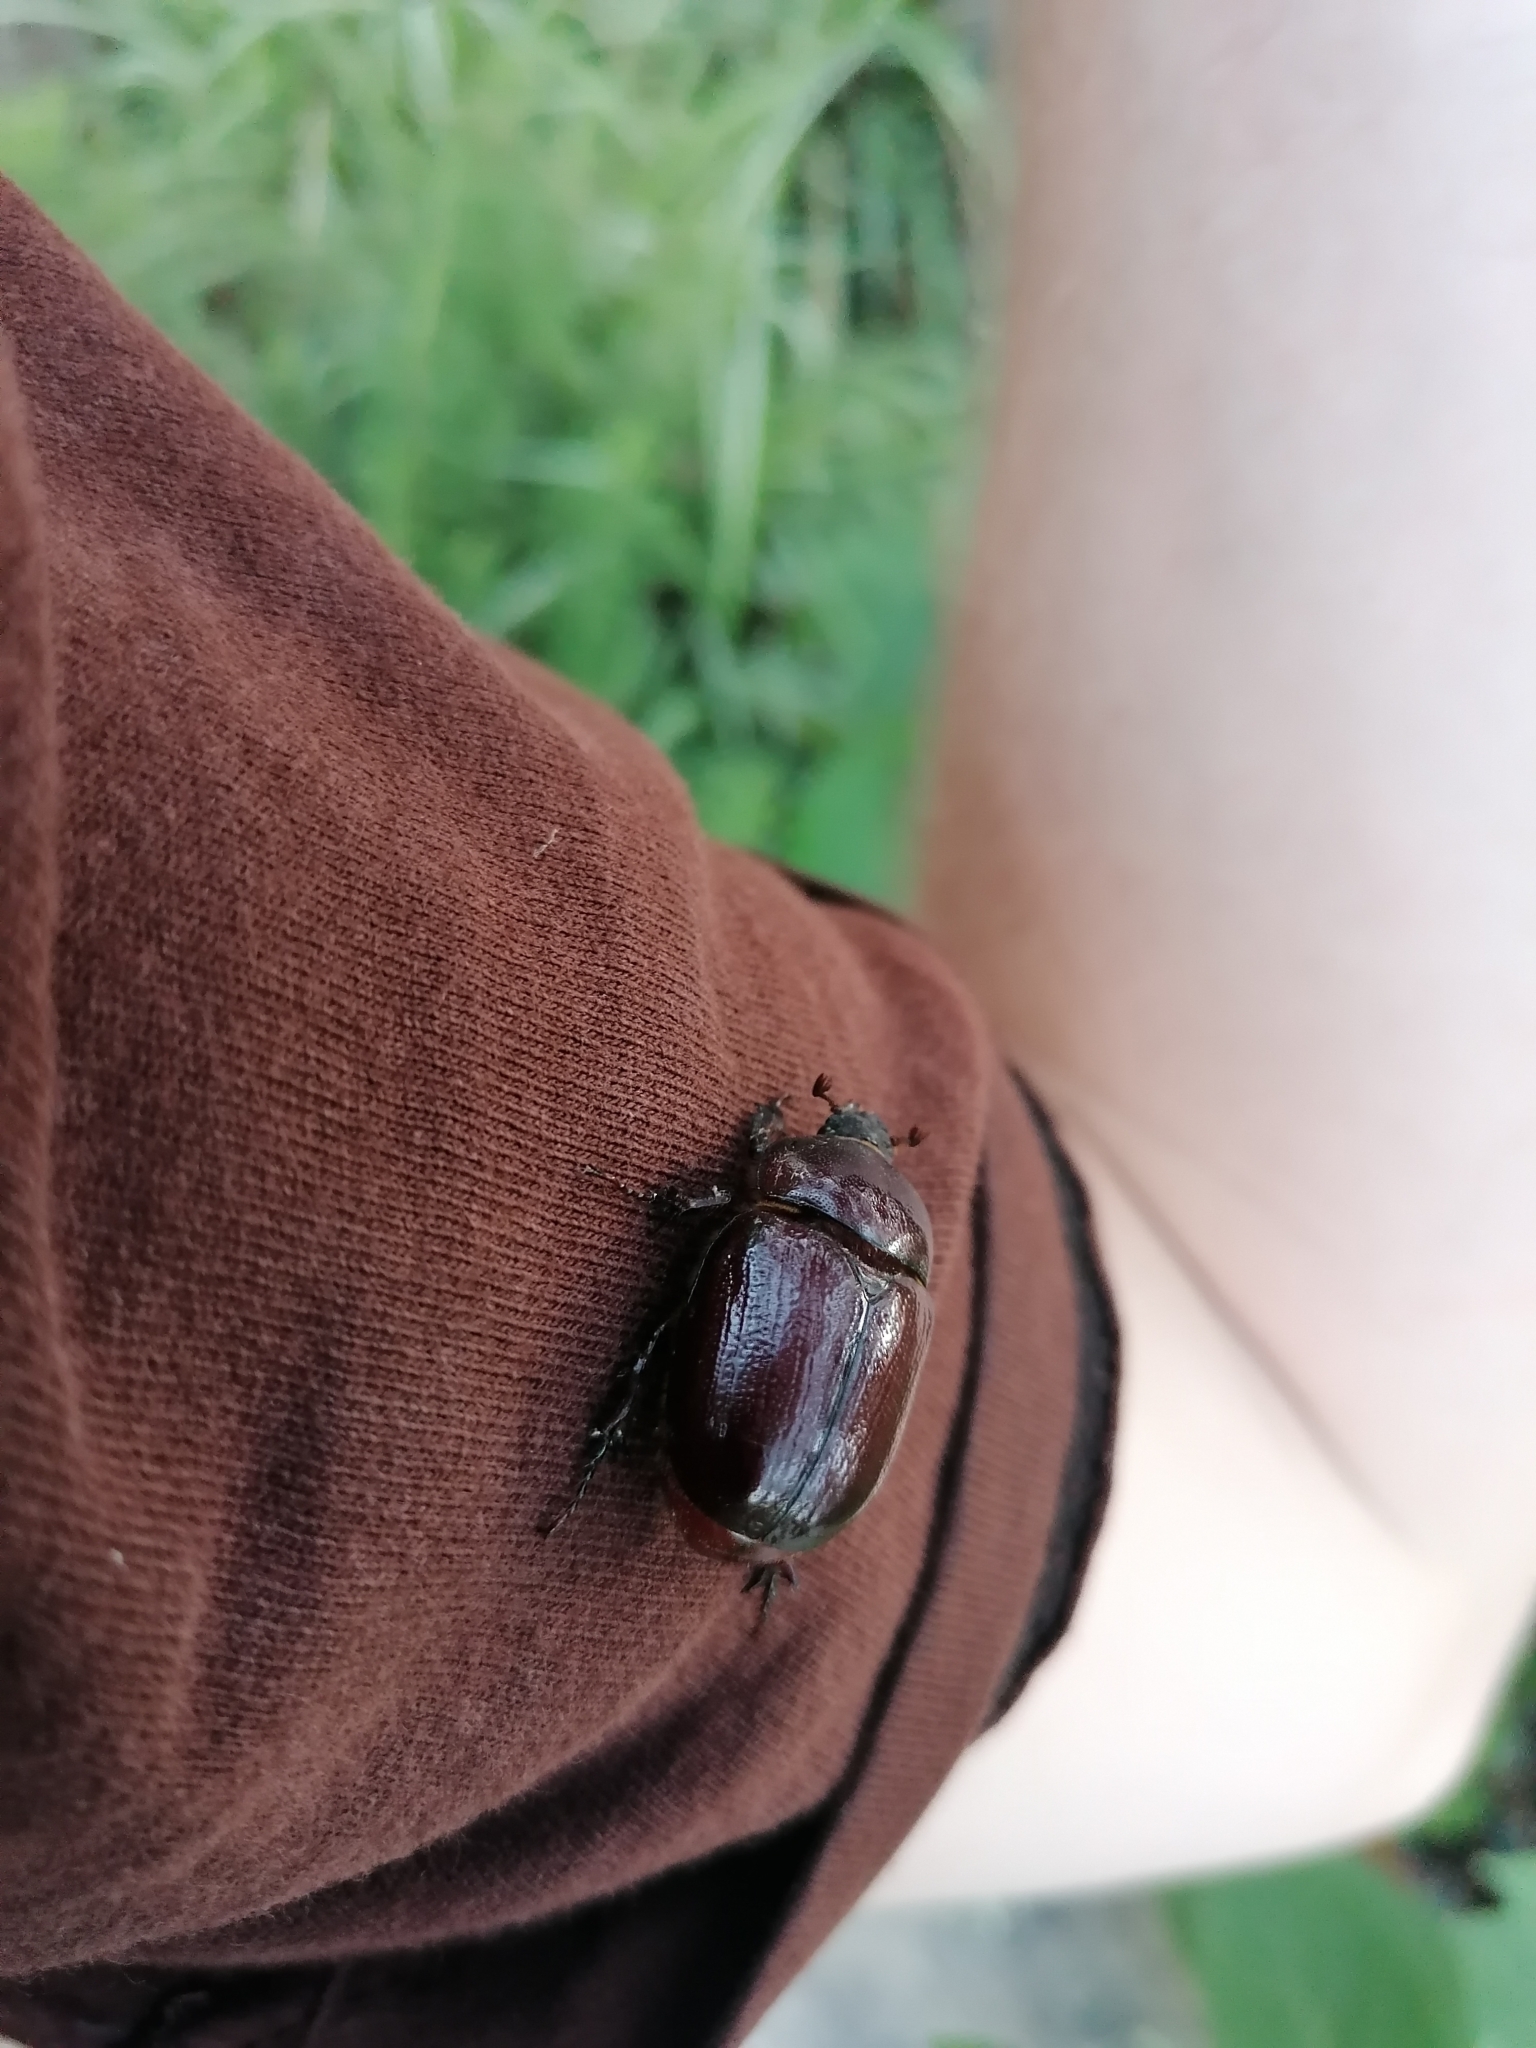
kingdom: Animalia
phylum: Arthropoda
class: Insecta
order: Coleoptera
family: Scarabaeidae
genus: Oryctes
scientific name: Oryctes nasicornis
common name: European rhinoceros beetle
